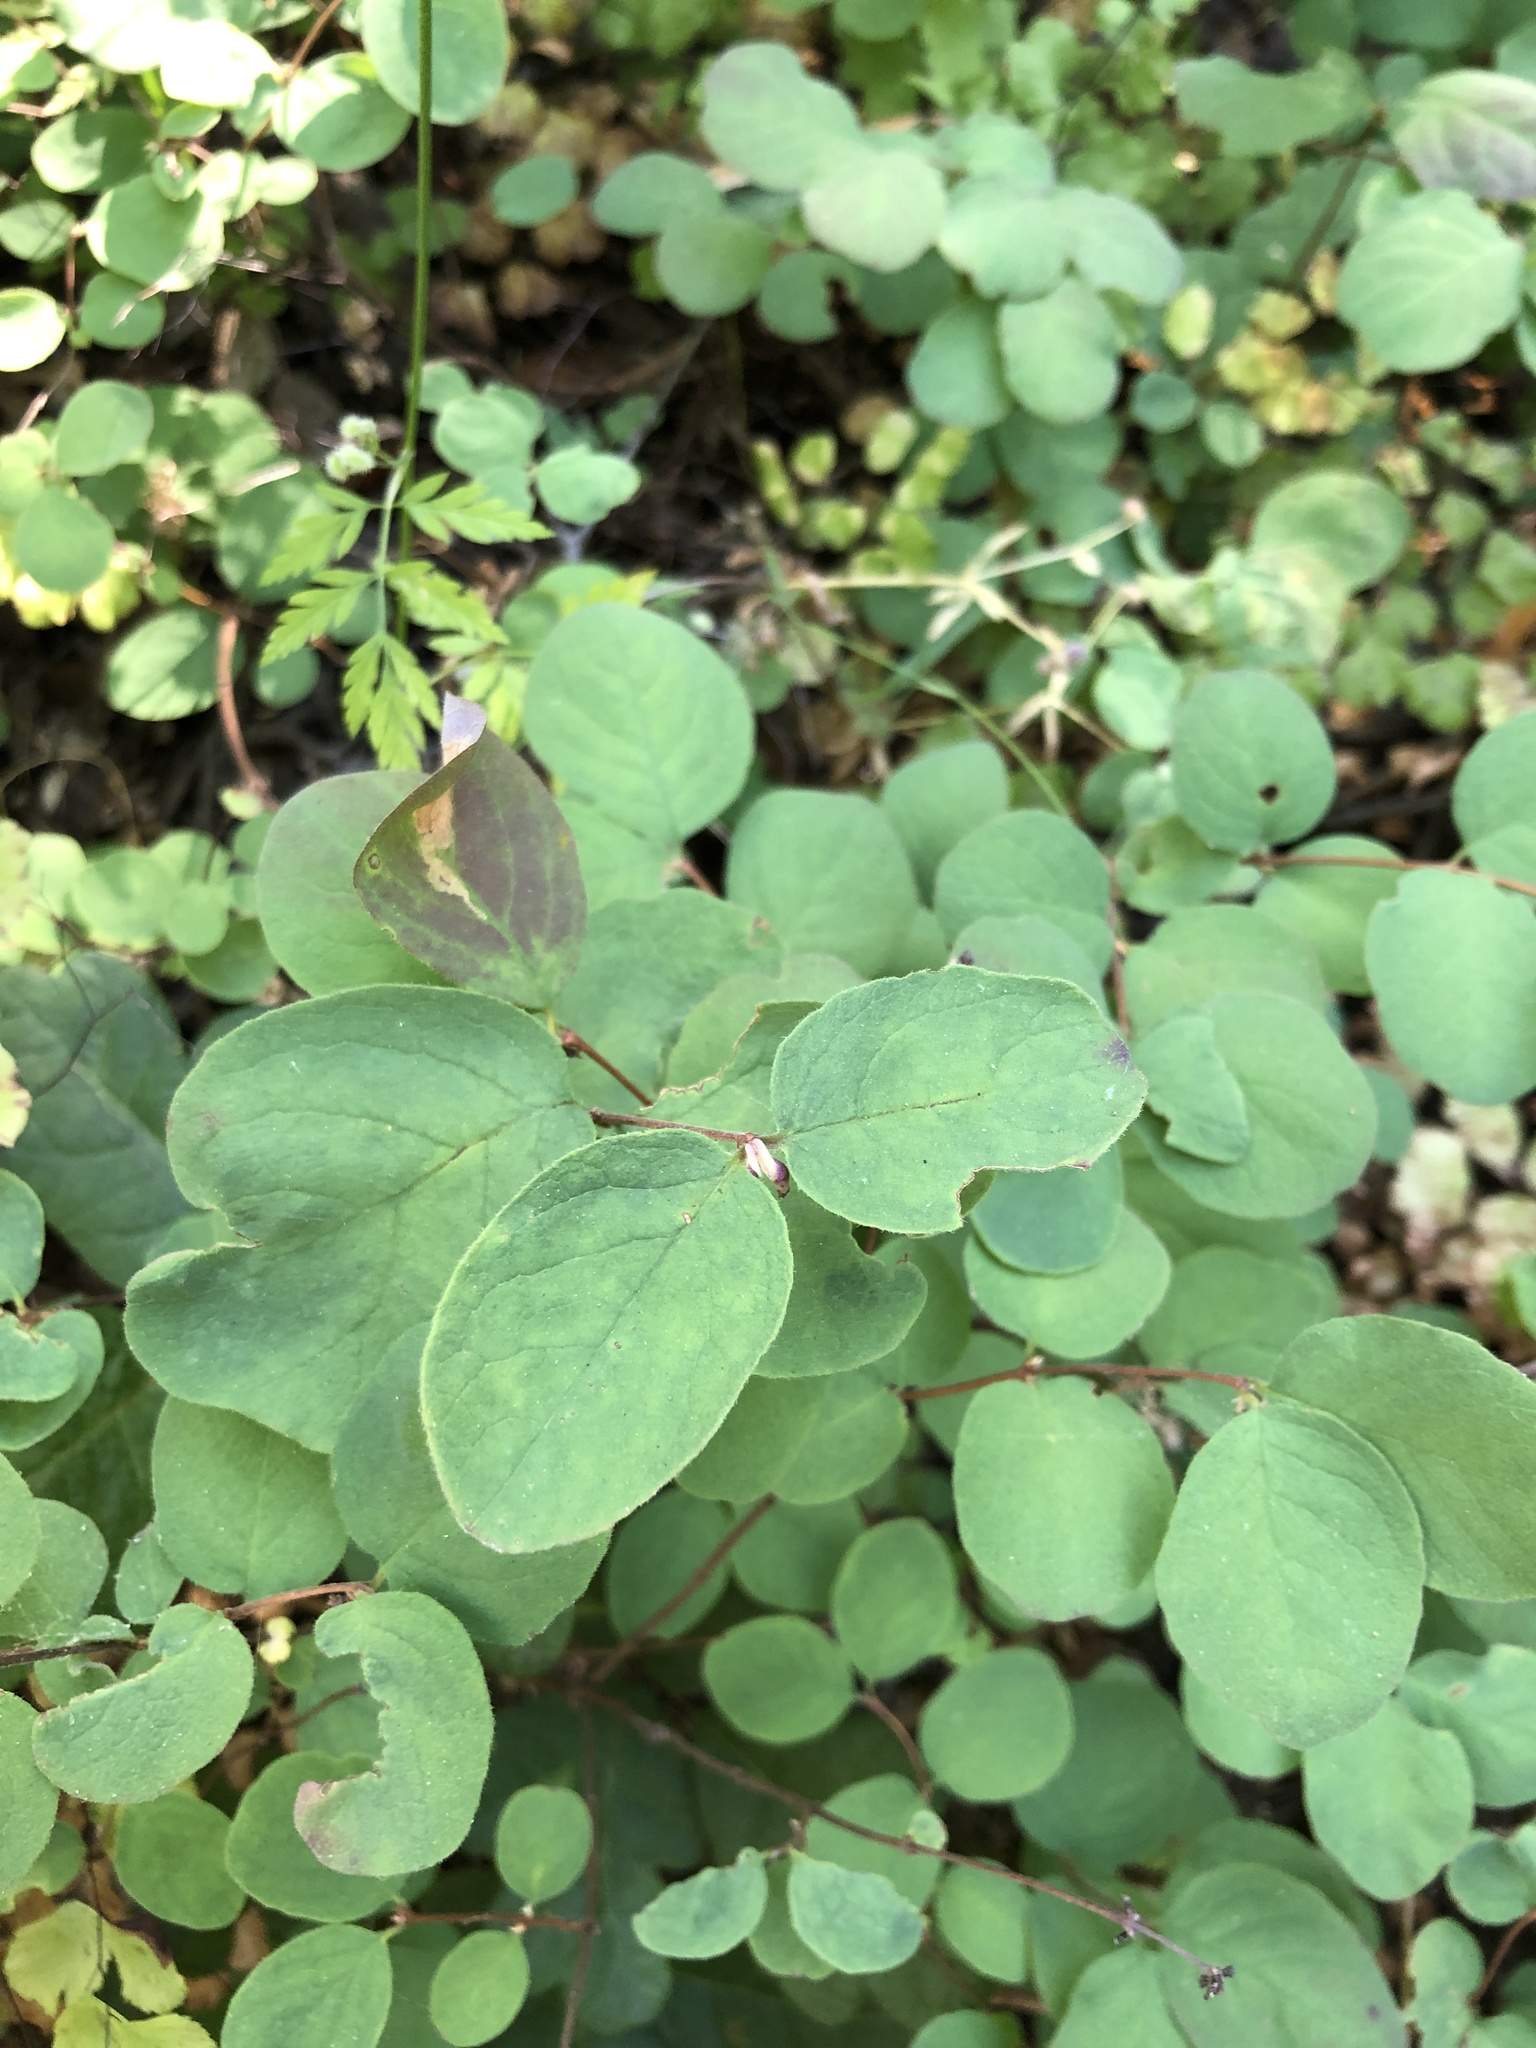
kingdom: Plantae
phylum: Tracheophyta
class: Magnoliopsida
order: Dipsacales
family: Caprifoliaceae
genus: Symphoricarpos
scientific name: Symphoricarpos mollis
